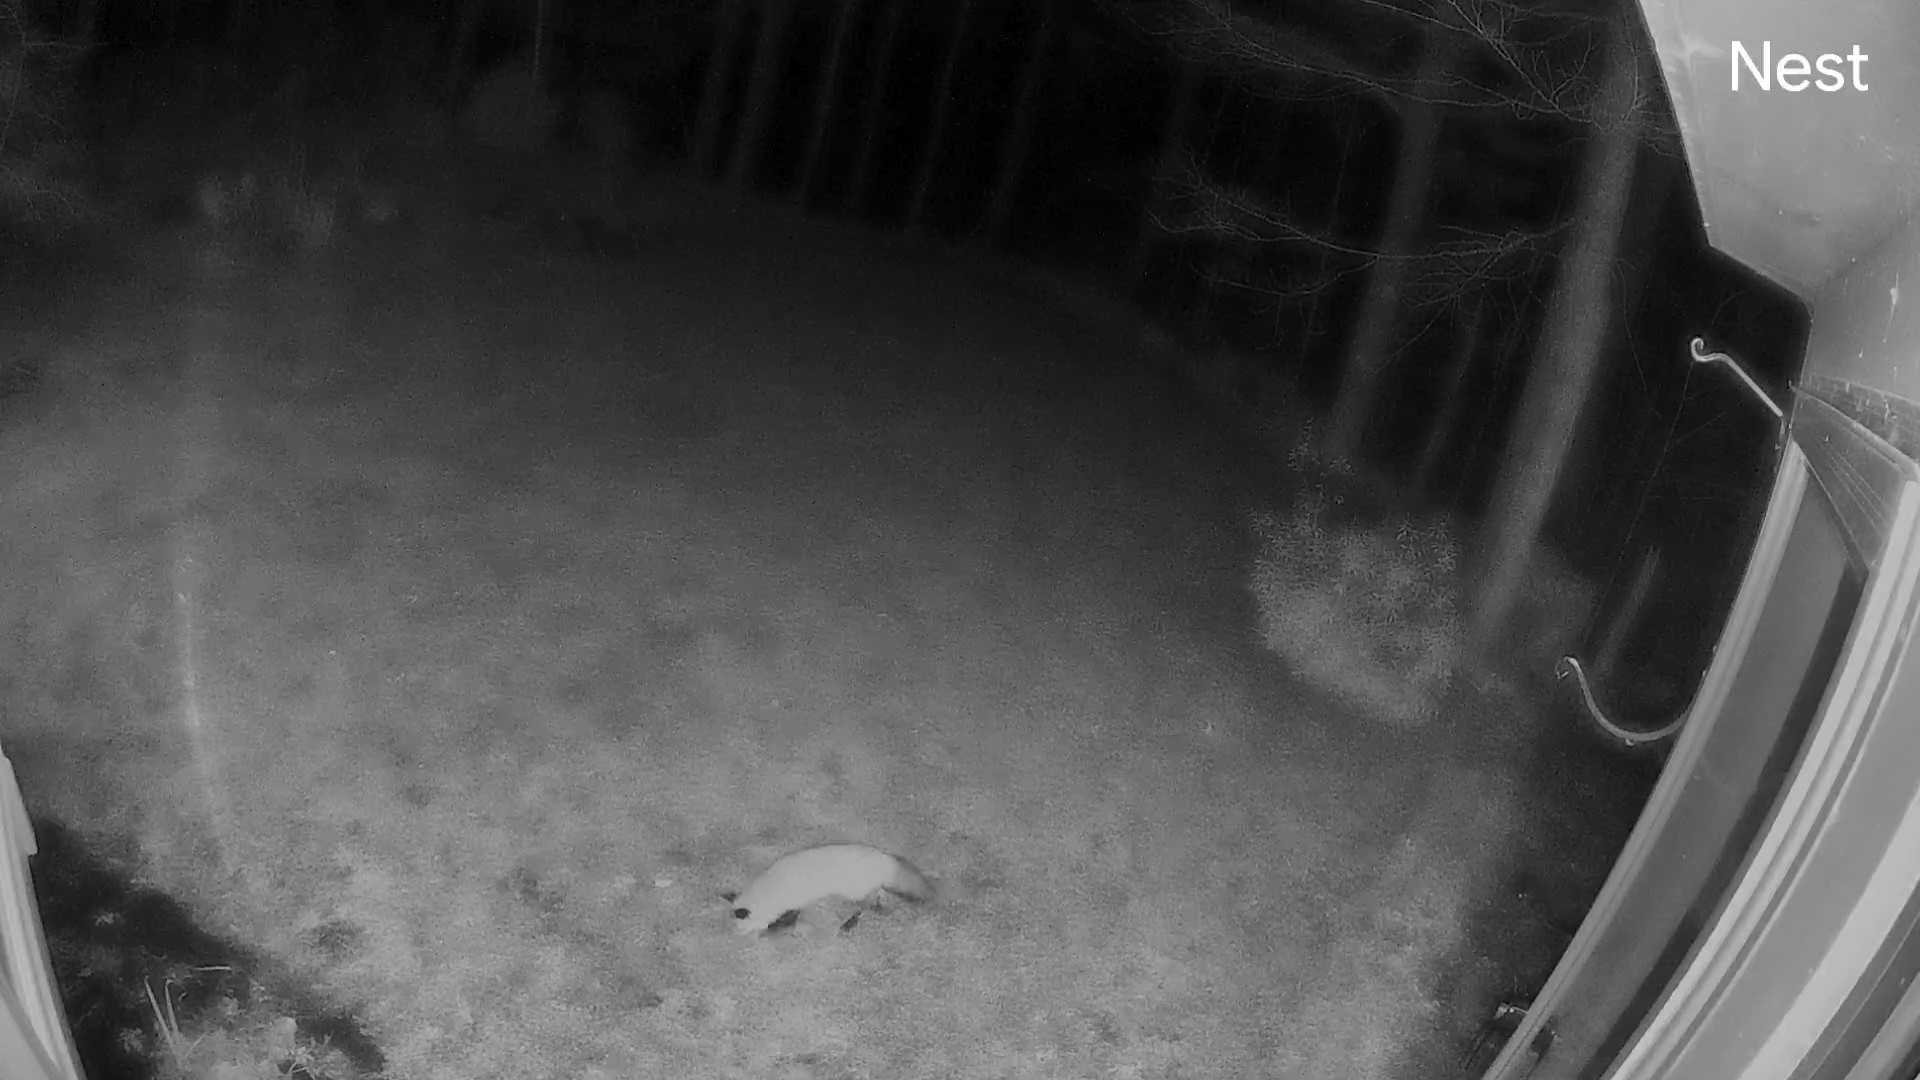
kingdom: Animalia
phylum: Chordata
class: Mammalia
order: Carnivora
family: Canidae
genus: Vulpes
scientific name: Vulpes vulpes
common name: Red fox
